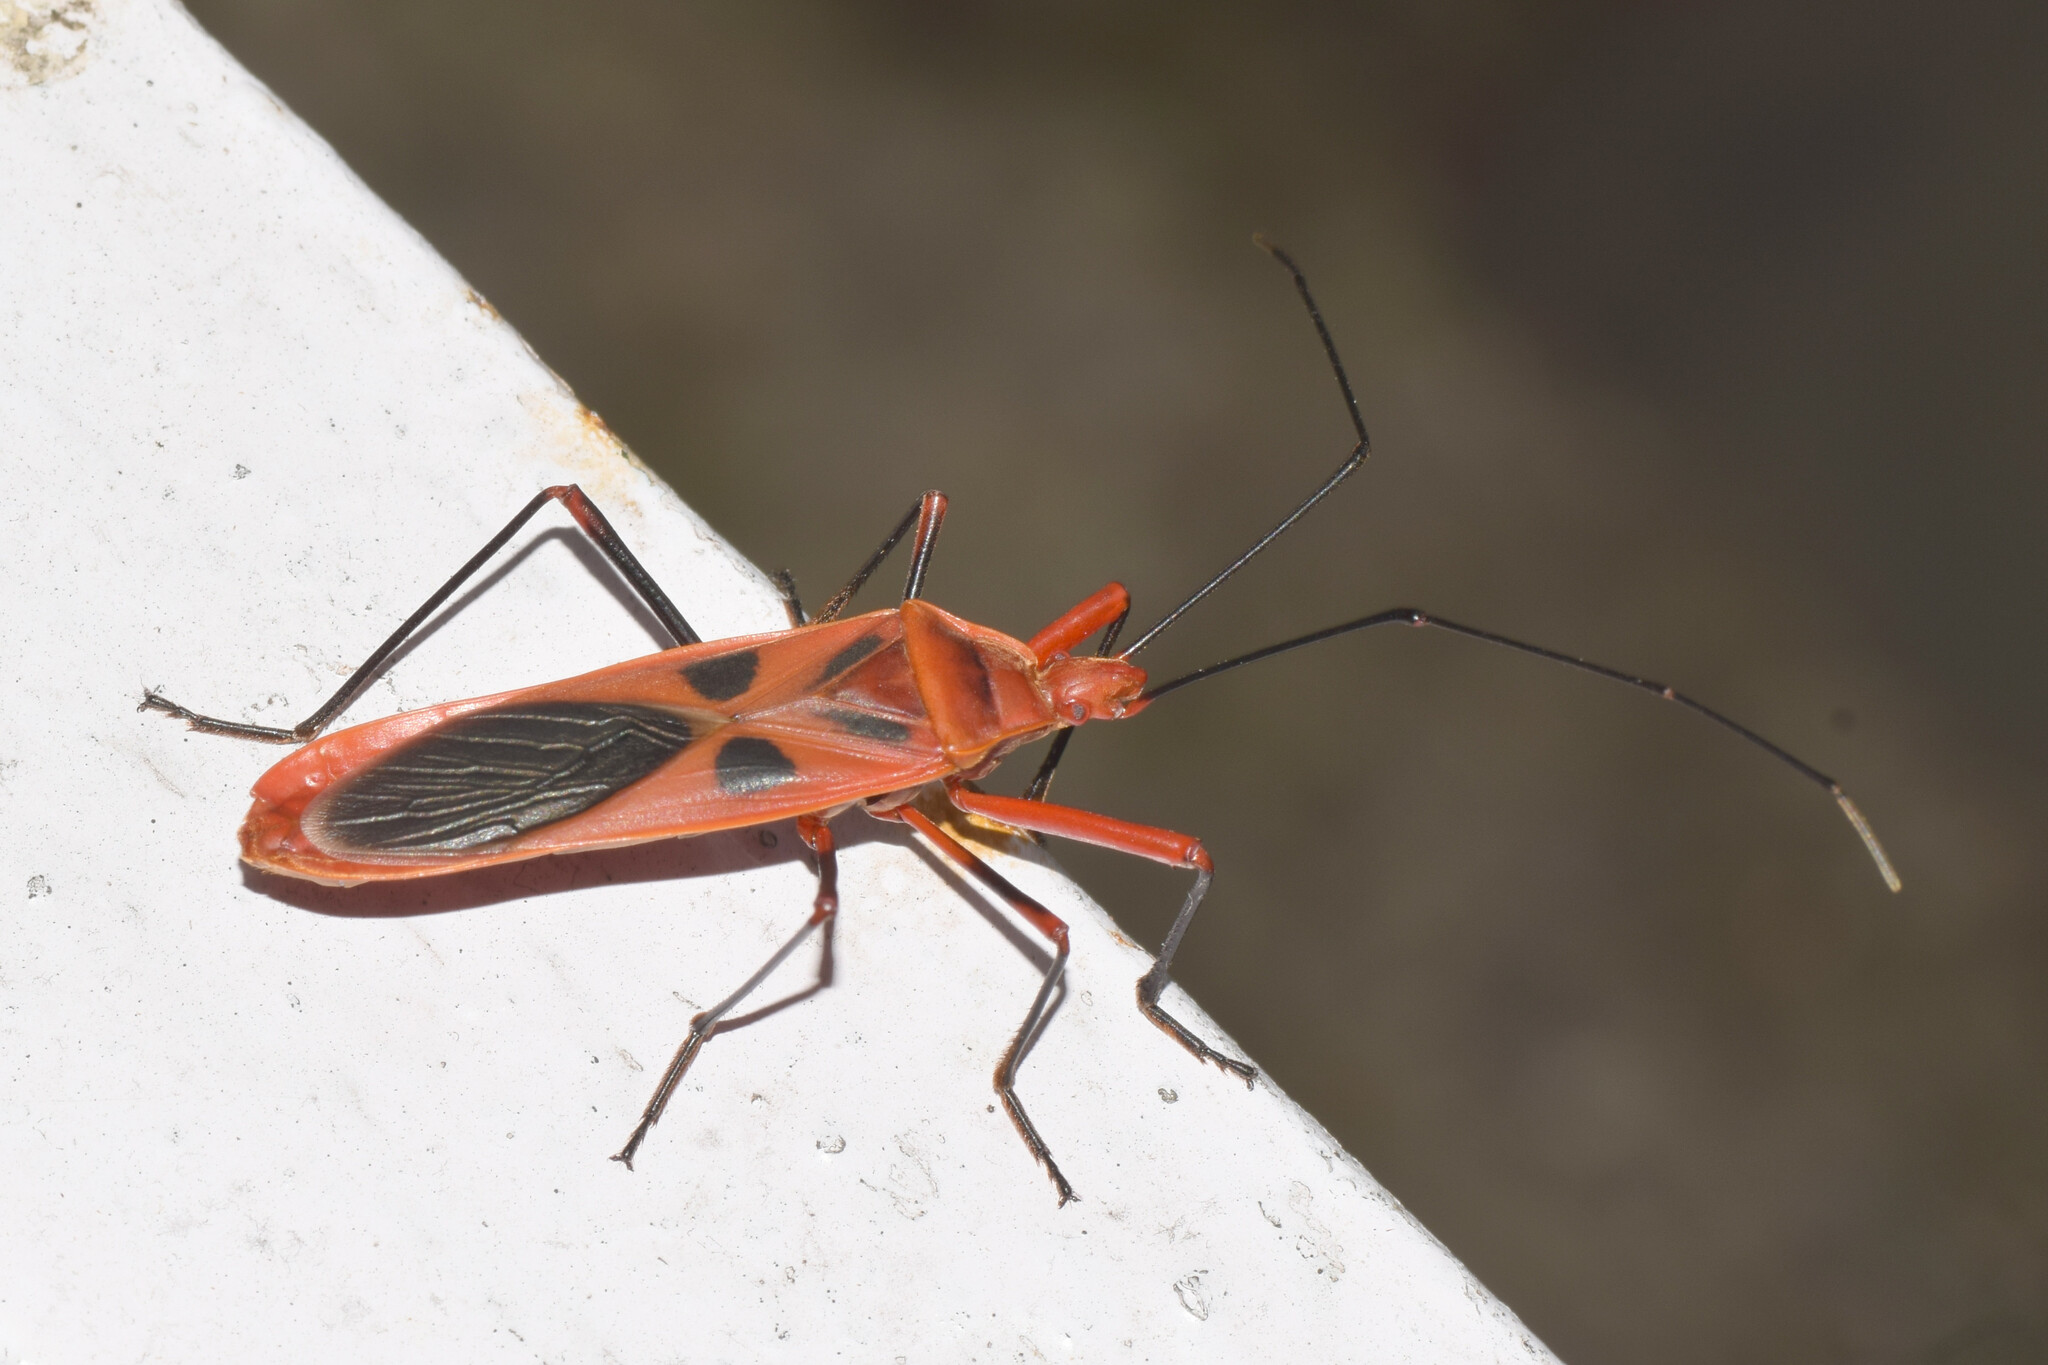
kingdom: Animalia
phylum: Arthropoda
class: Insecta
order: Hemiptera
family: Largidae
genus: Macrocheraia
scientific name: Macrocheraia grandis
